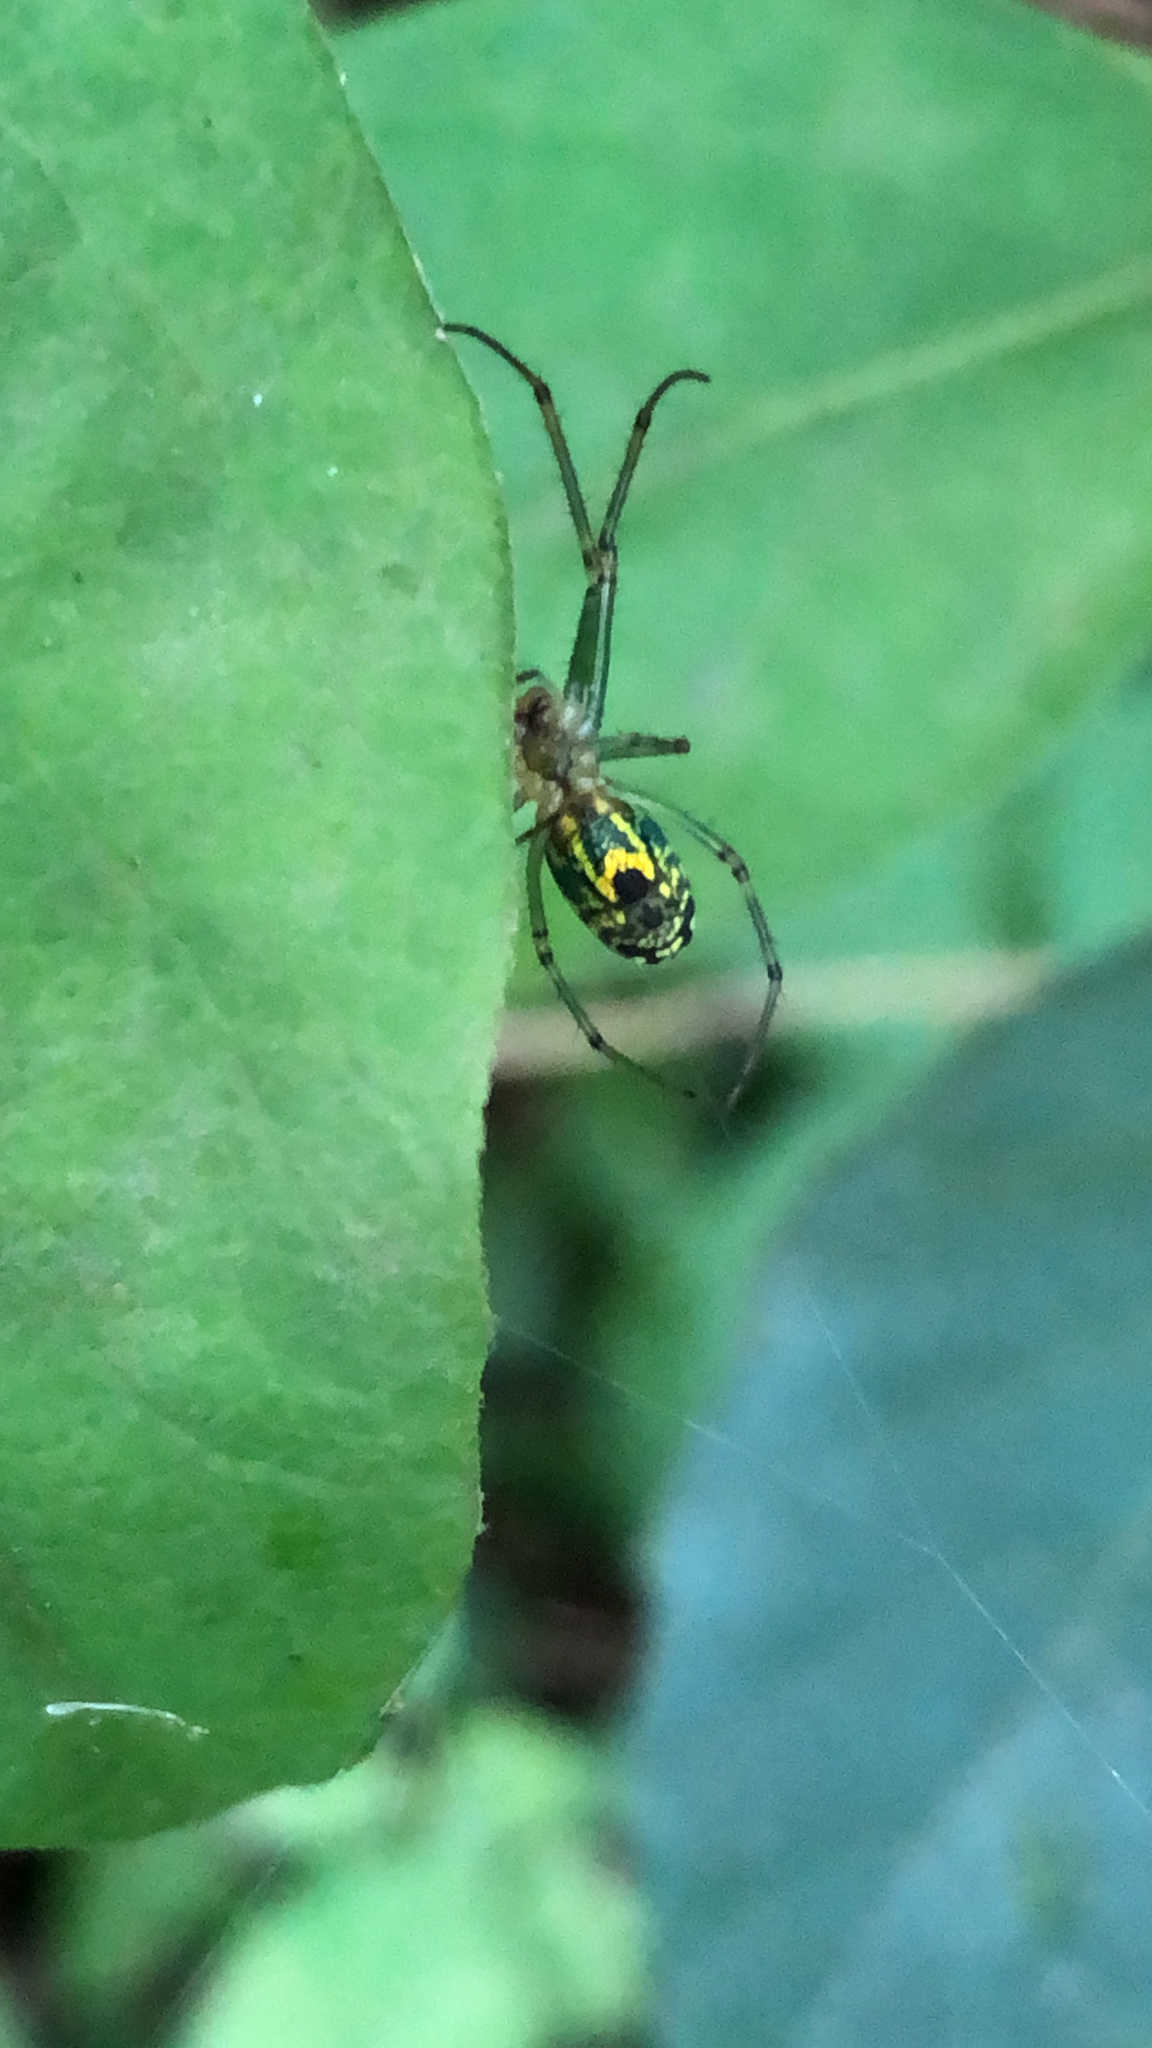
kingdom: Animalia
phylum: Arthropoda
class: Arachnida
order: Araneae
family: Tetragnathidae
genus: Leucauge
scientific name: Leucauge venusta
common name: Longjawed orb weavers
